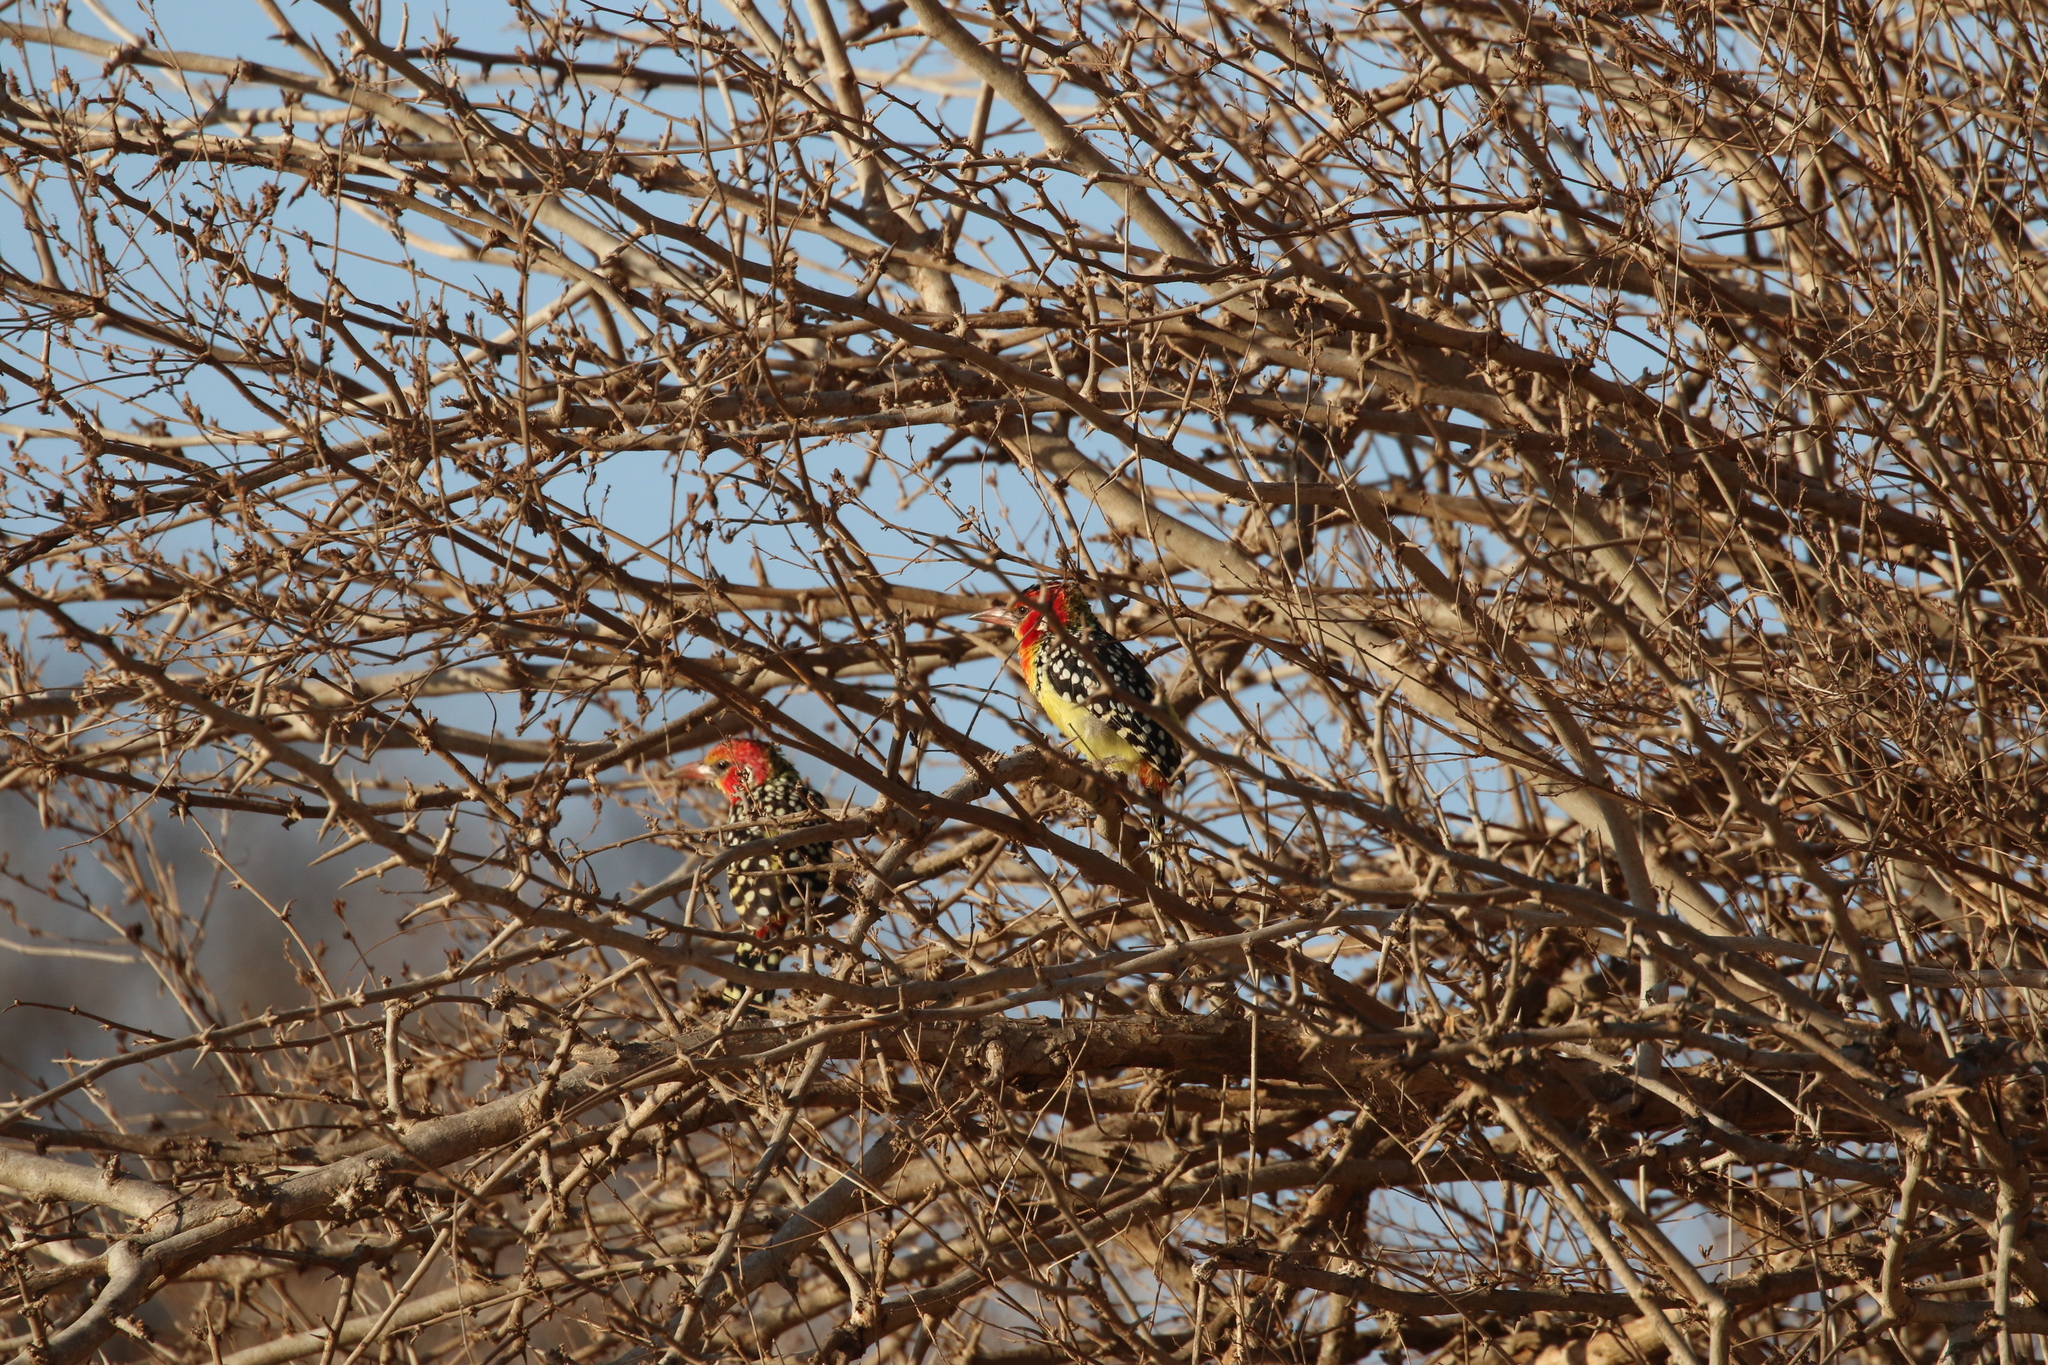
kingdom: Animalia
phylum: Chordata
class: Aves
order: Piciformes
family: Lybiidae
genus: Trachyphonus
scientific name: Trachyphonus erythrocephalus
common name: Red-and-yellow barbet
